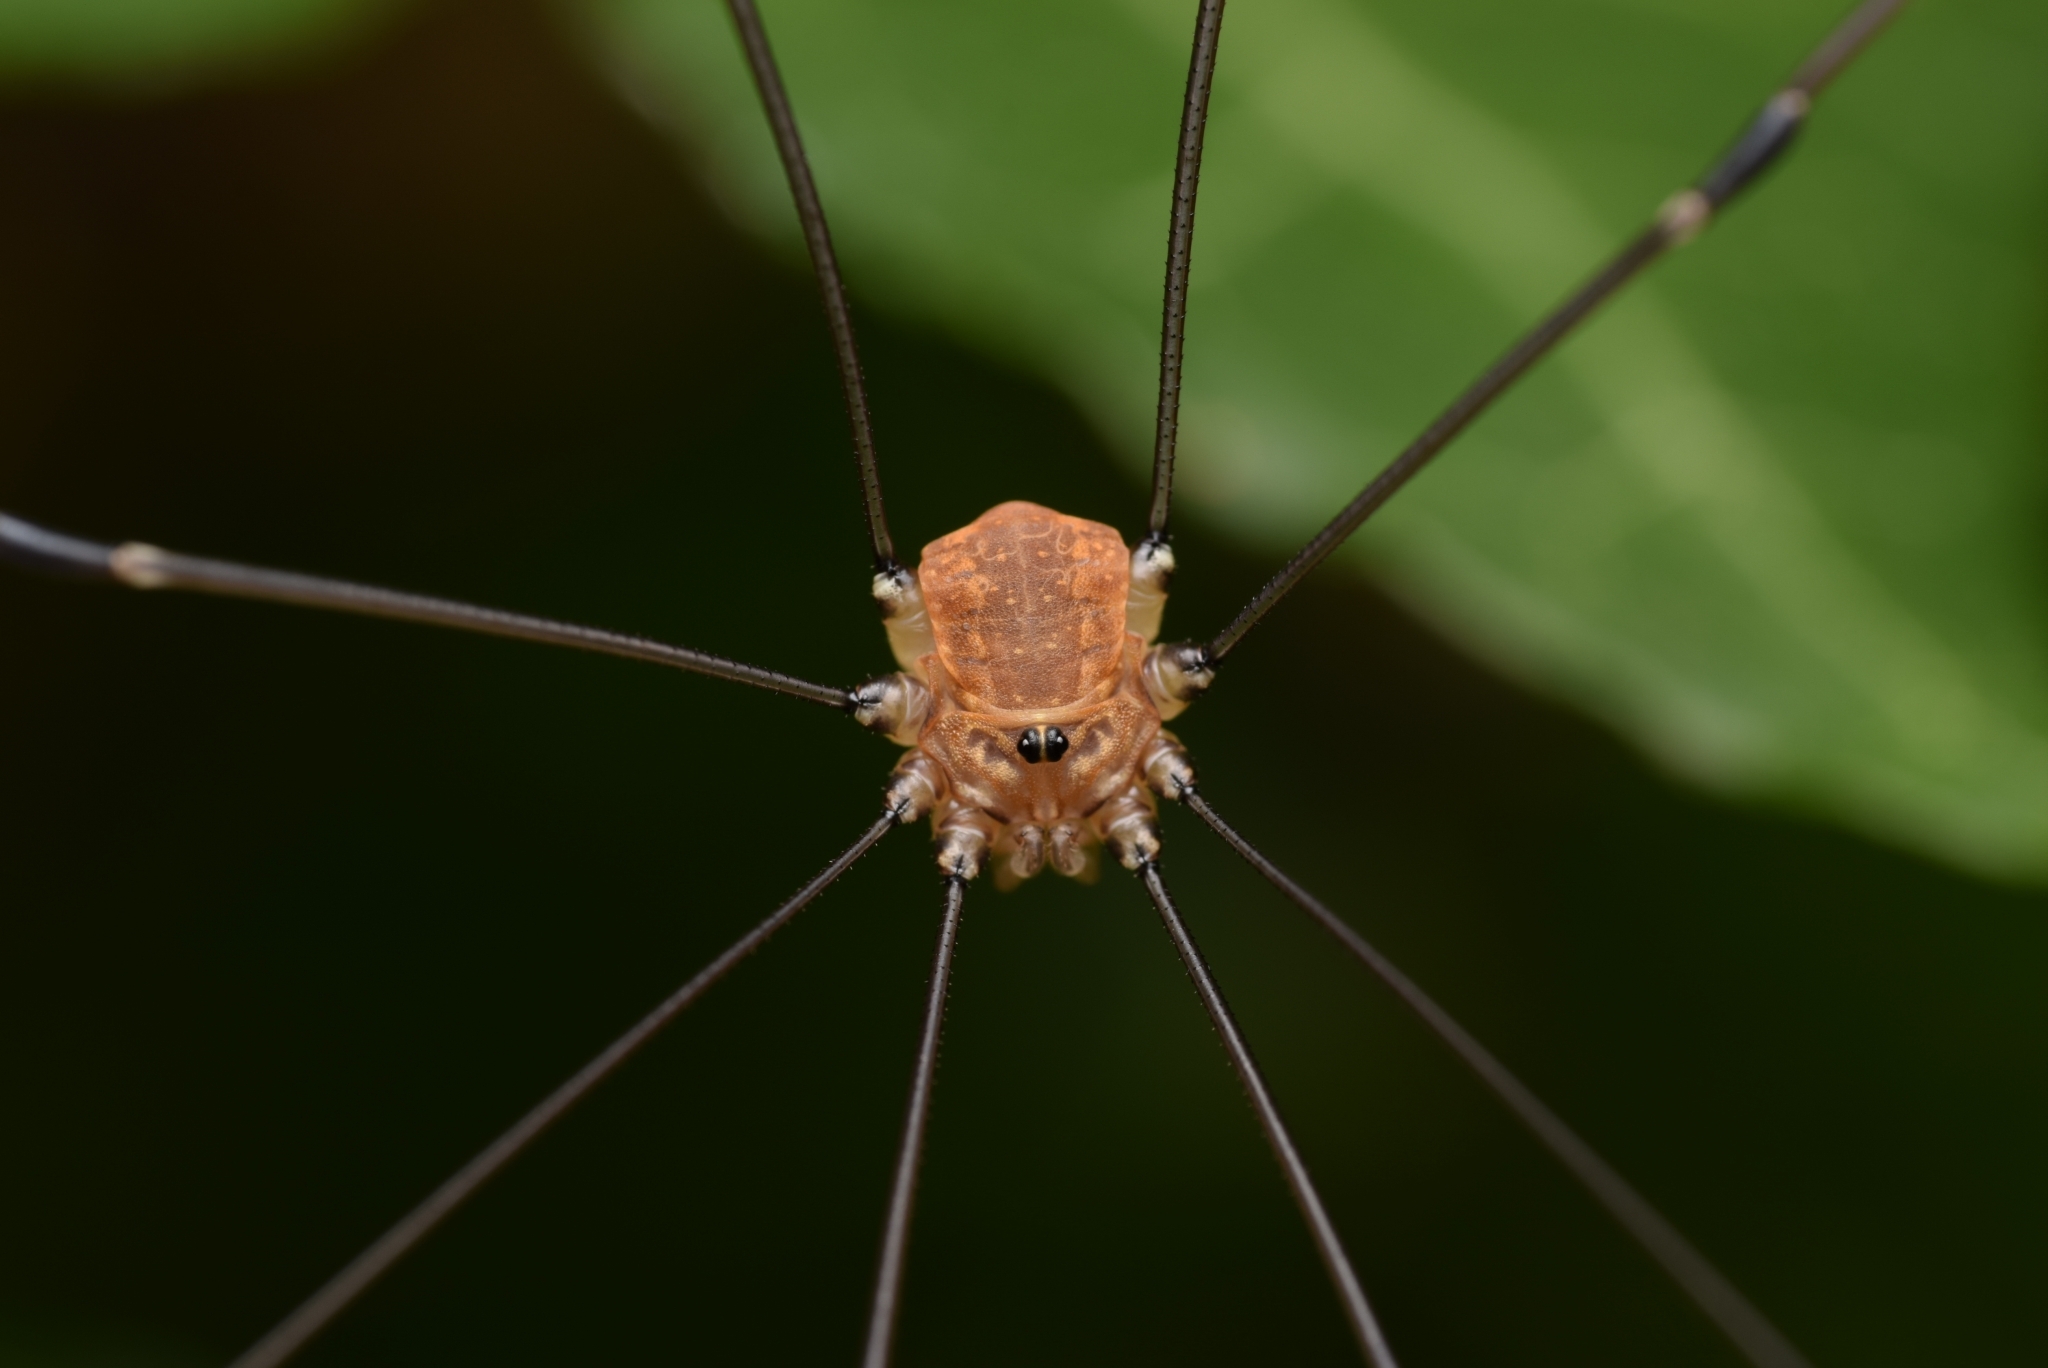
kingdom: Animalia
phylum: Arthropoda
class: Arachnida
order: Opiliones
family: Sclerosomatidae
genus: Leiobunum
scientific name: Leiobunum rotundum
